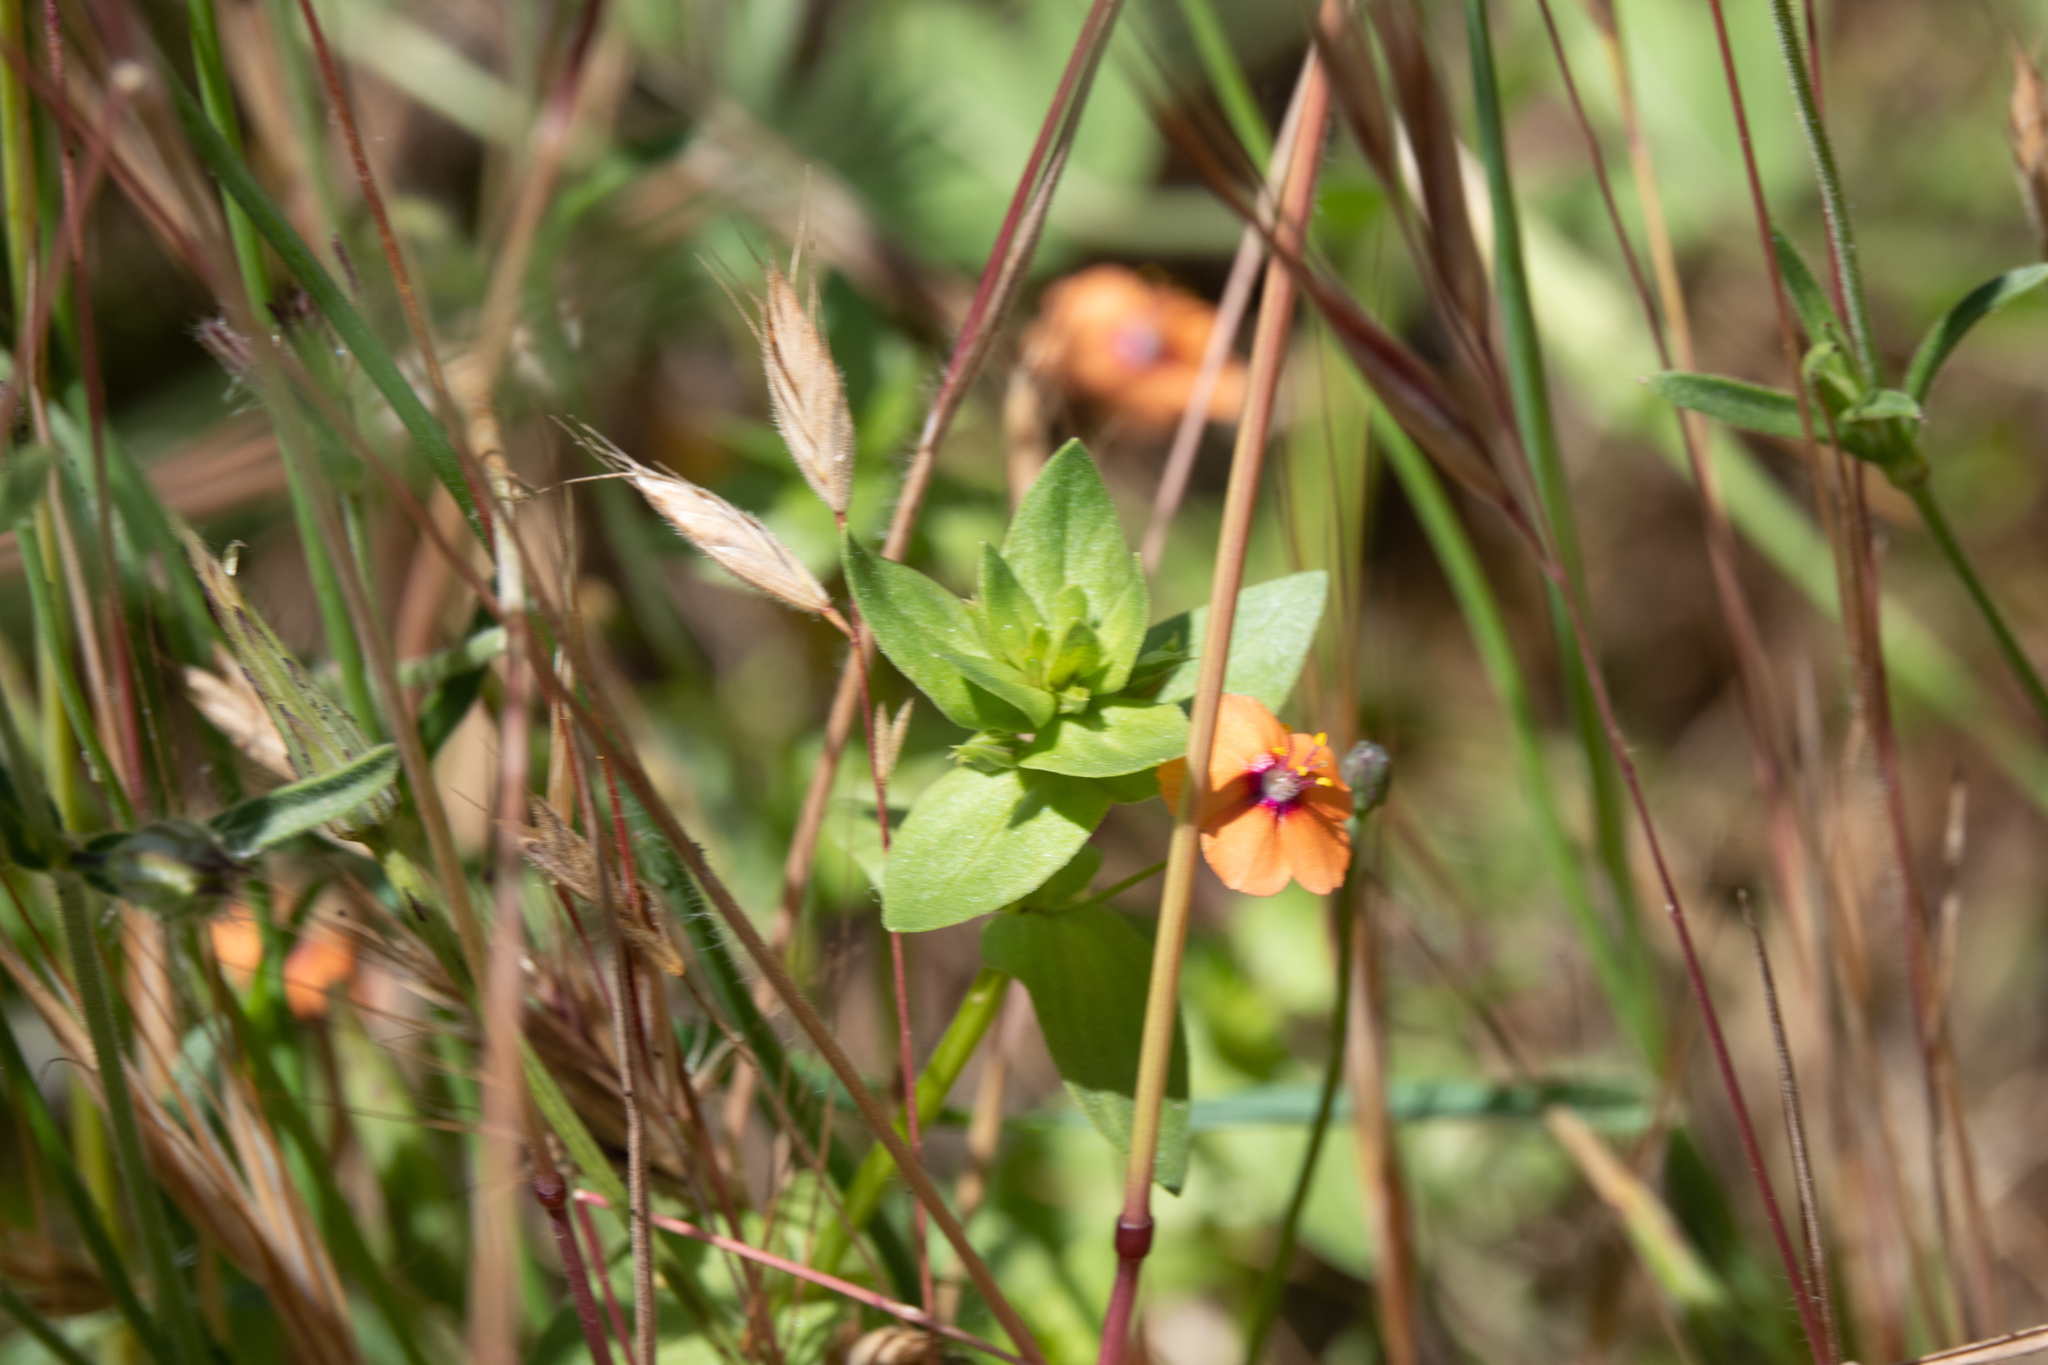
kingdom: Plantae
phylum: Tracheophyta
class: Magnoliopsida
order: Ericales
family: Primulaceae
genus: Lysimachia
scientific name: Lysimachia arvensis
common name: Scarlet pimpernel
